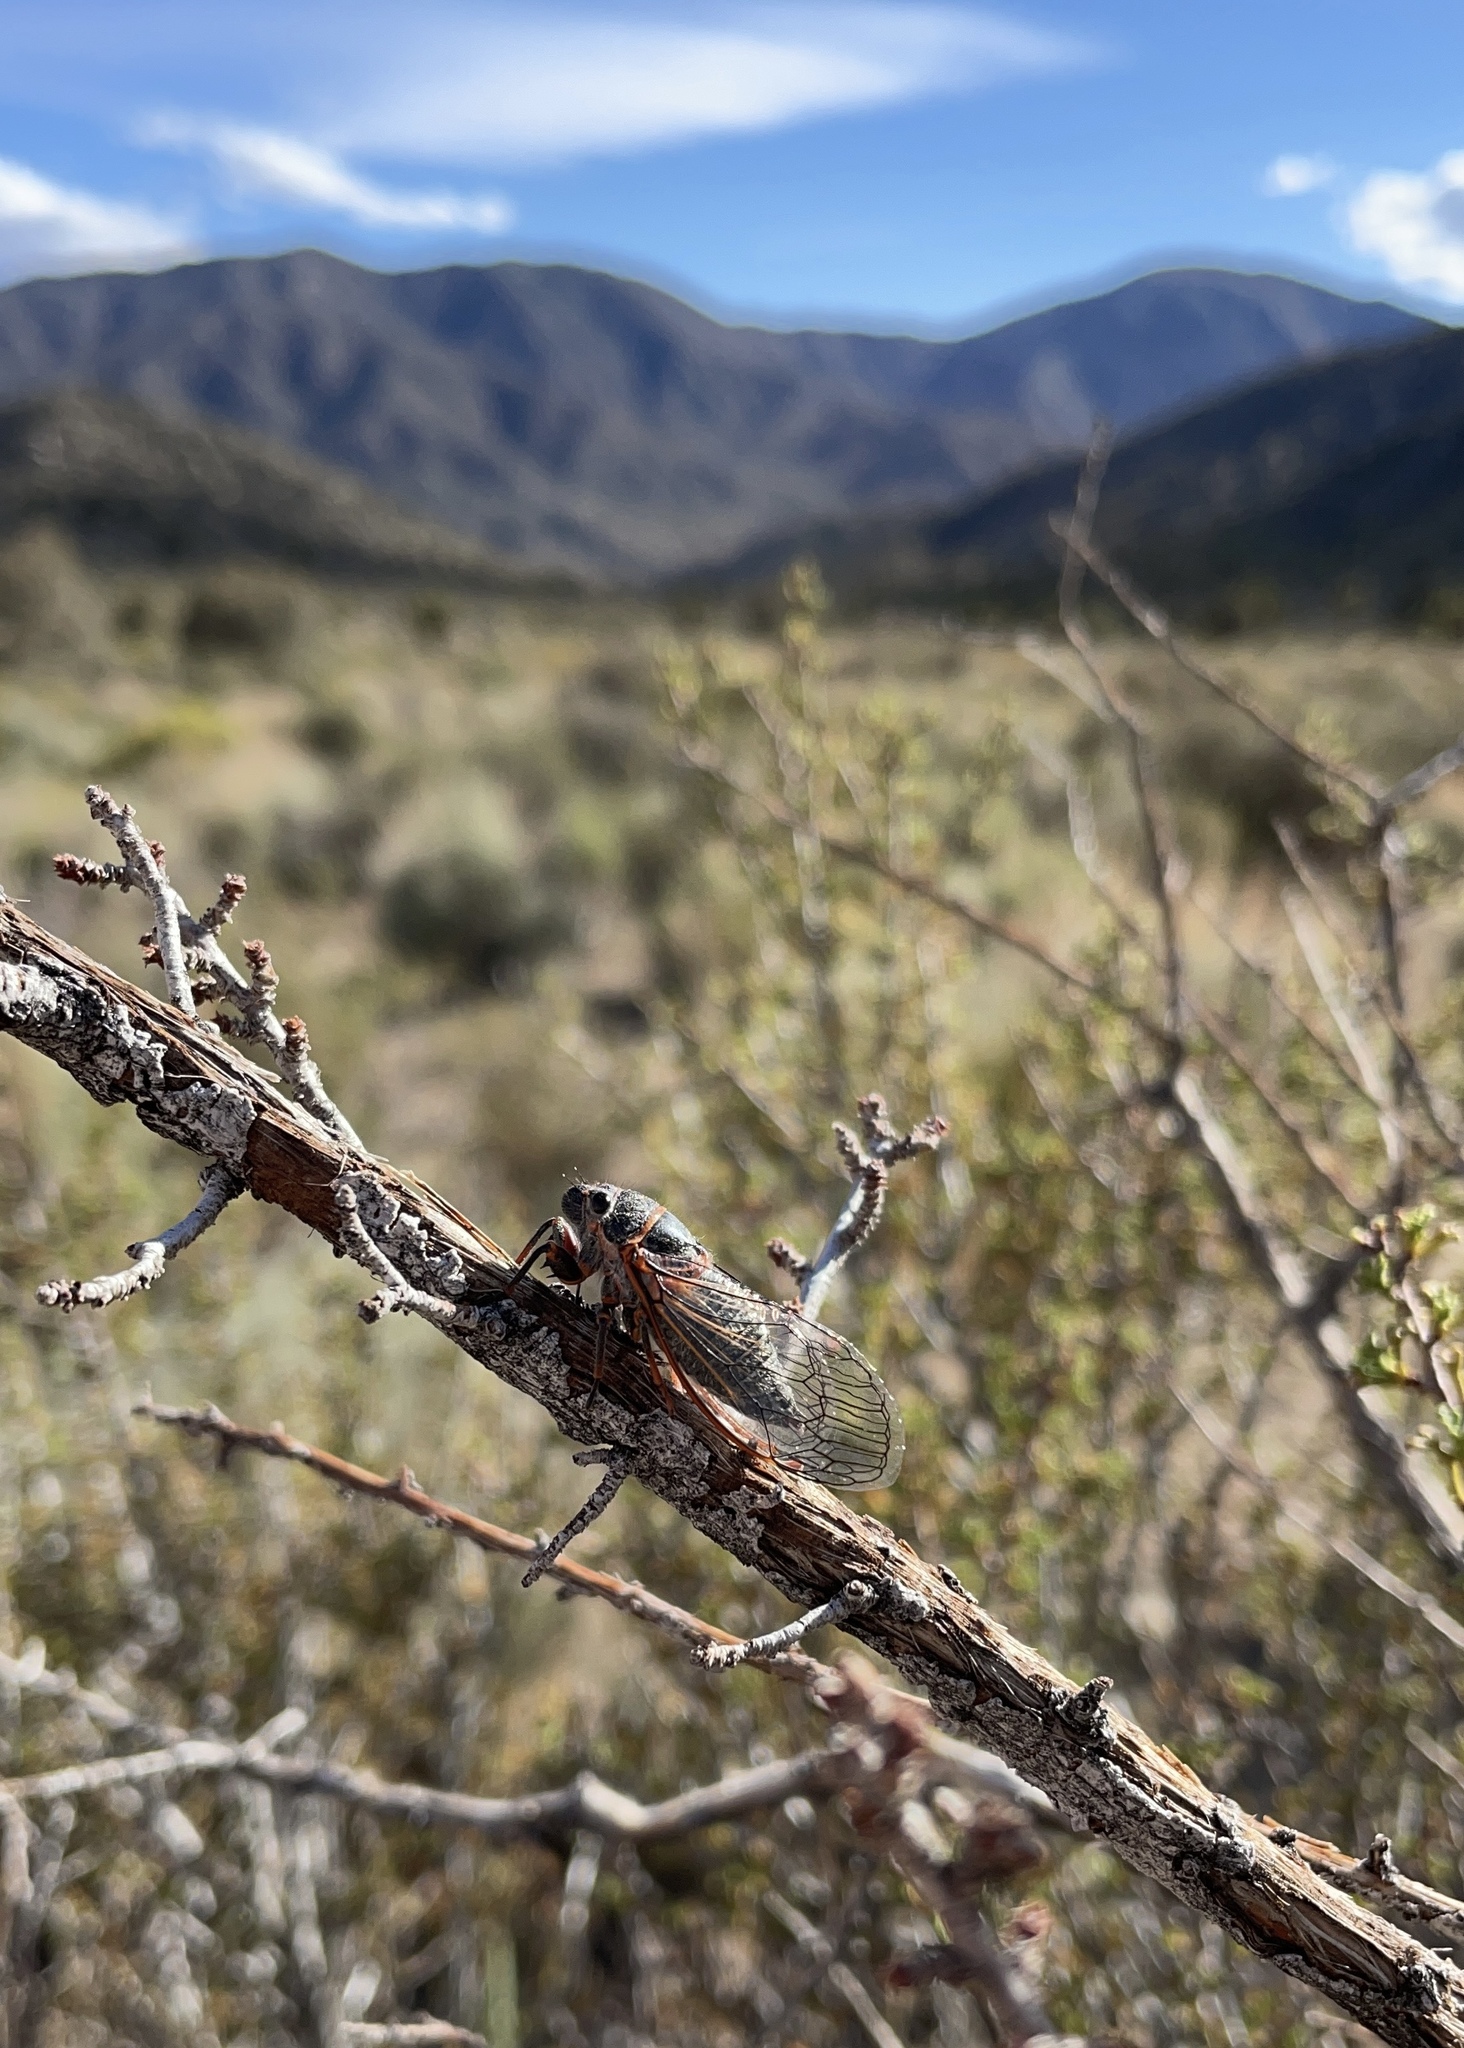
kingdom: Animalia
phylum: Arthropoda
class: Insecta
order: Hemiptera
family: Cicadidae
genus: Platypedia
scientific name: Platypedia sylvesteri
